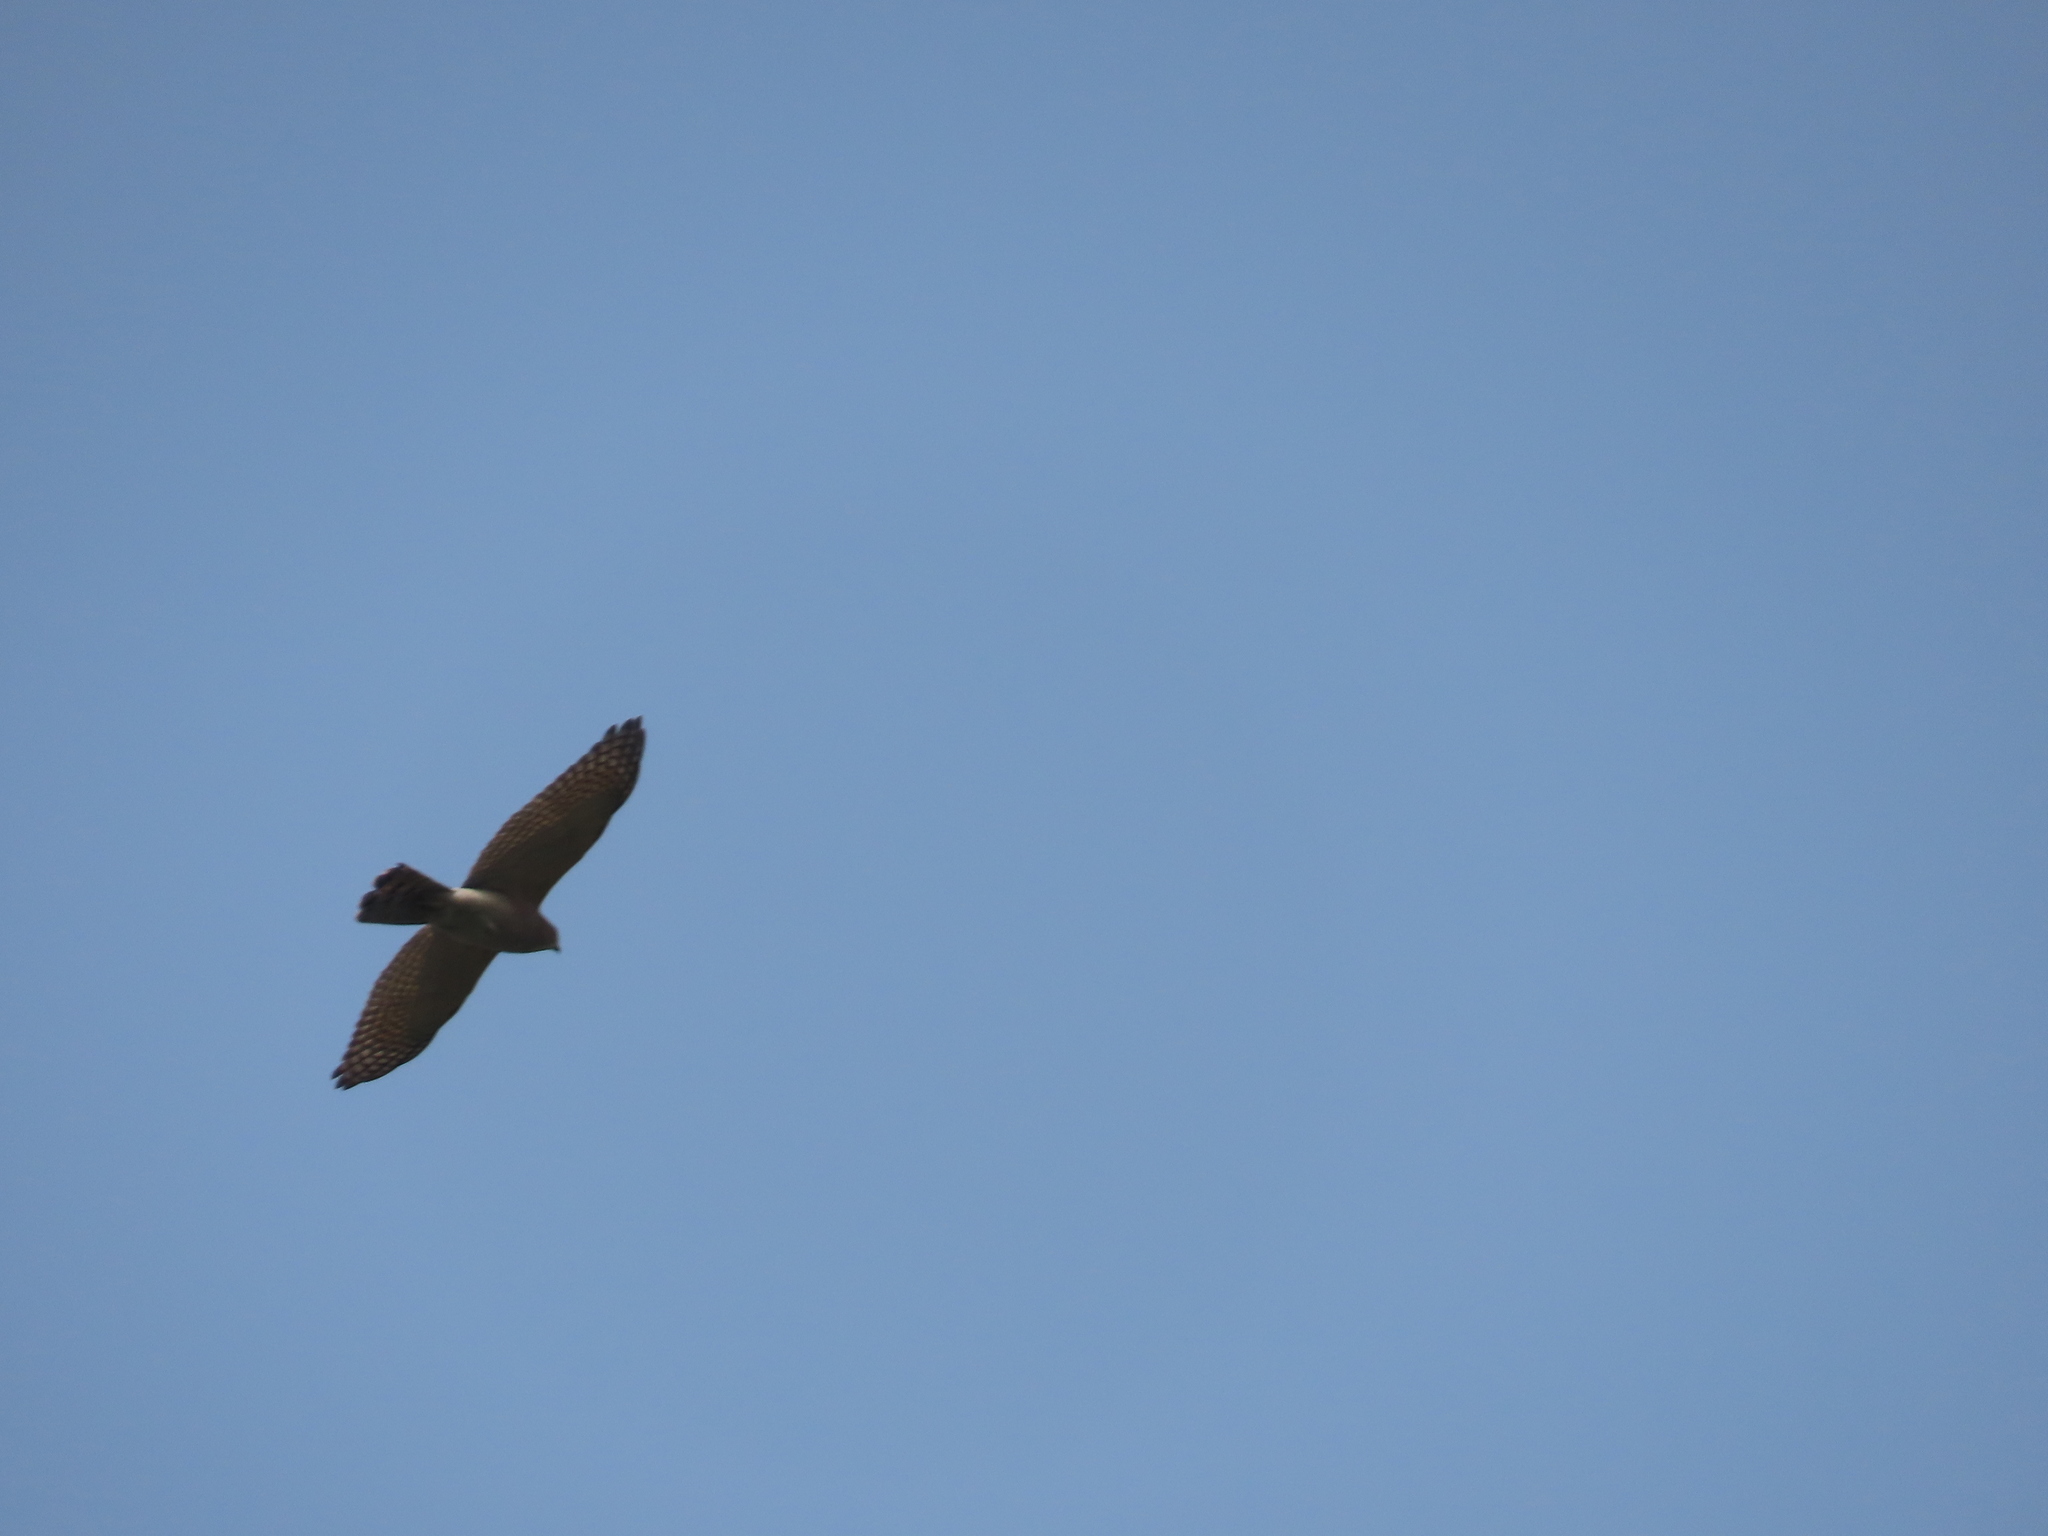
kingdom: Animalia
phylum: Chordata
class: Aves
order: Accipitriformes
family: Accipitridae
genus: Accipiter
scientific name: Accipiter badius
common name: Shikra
